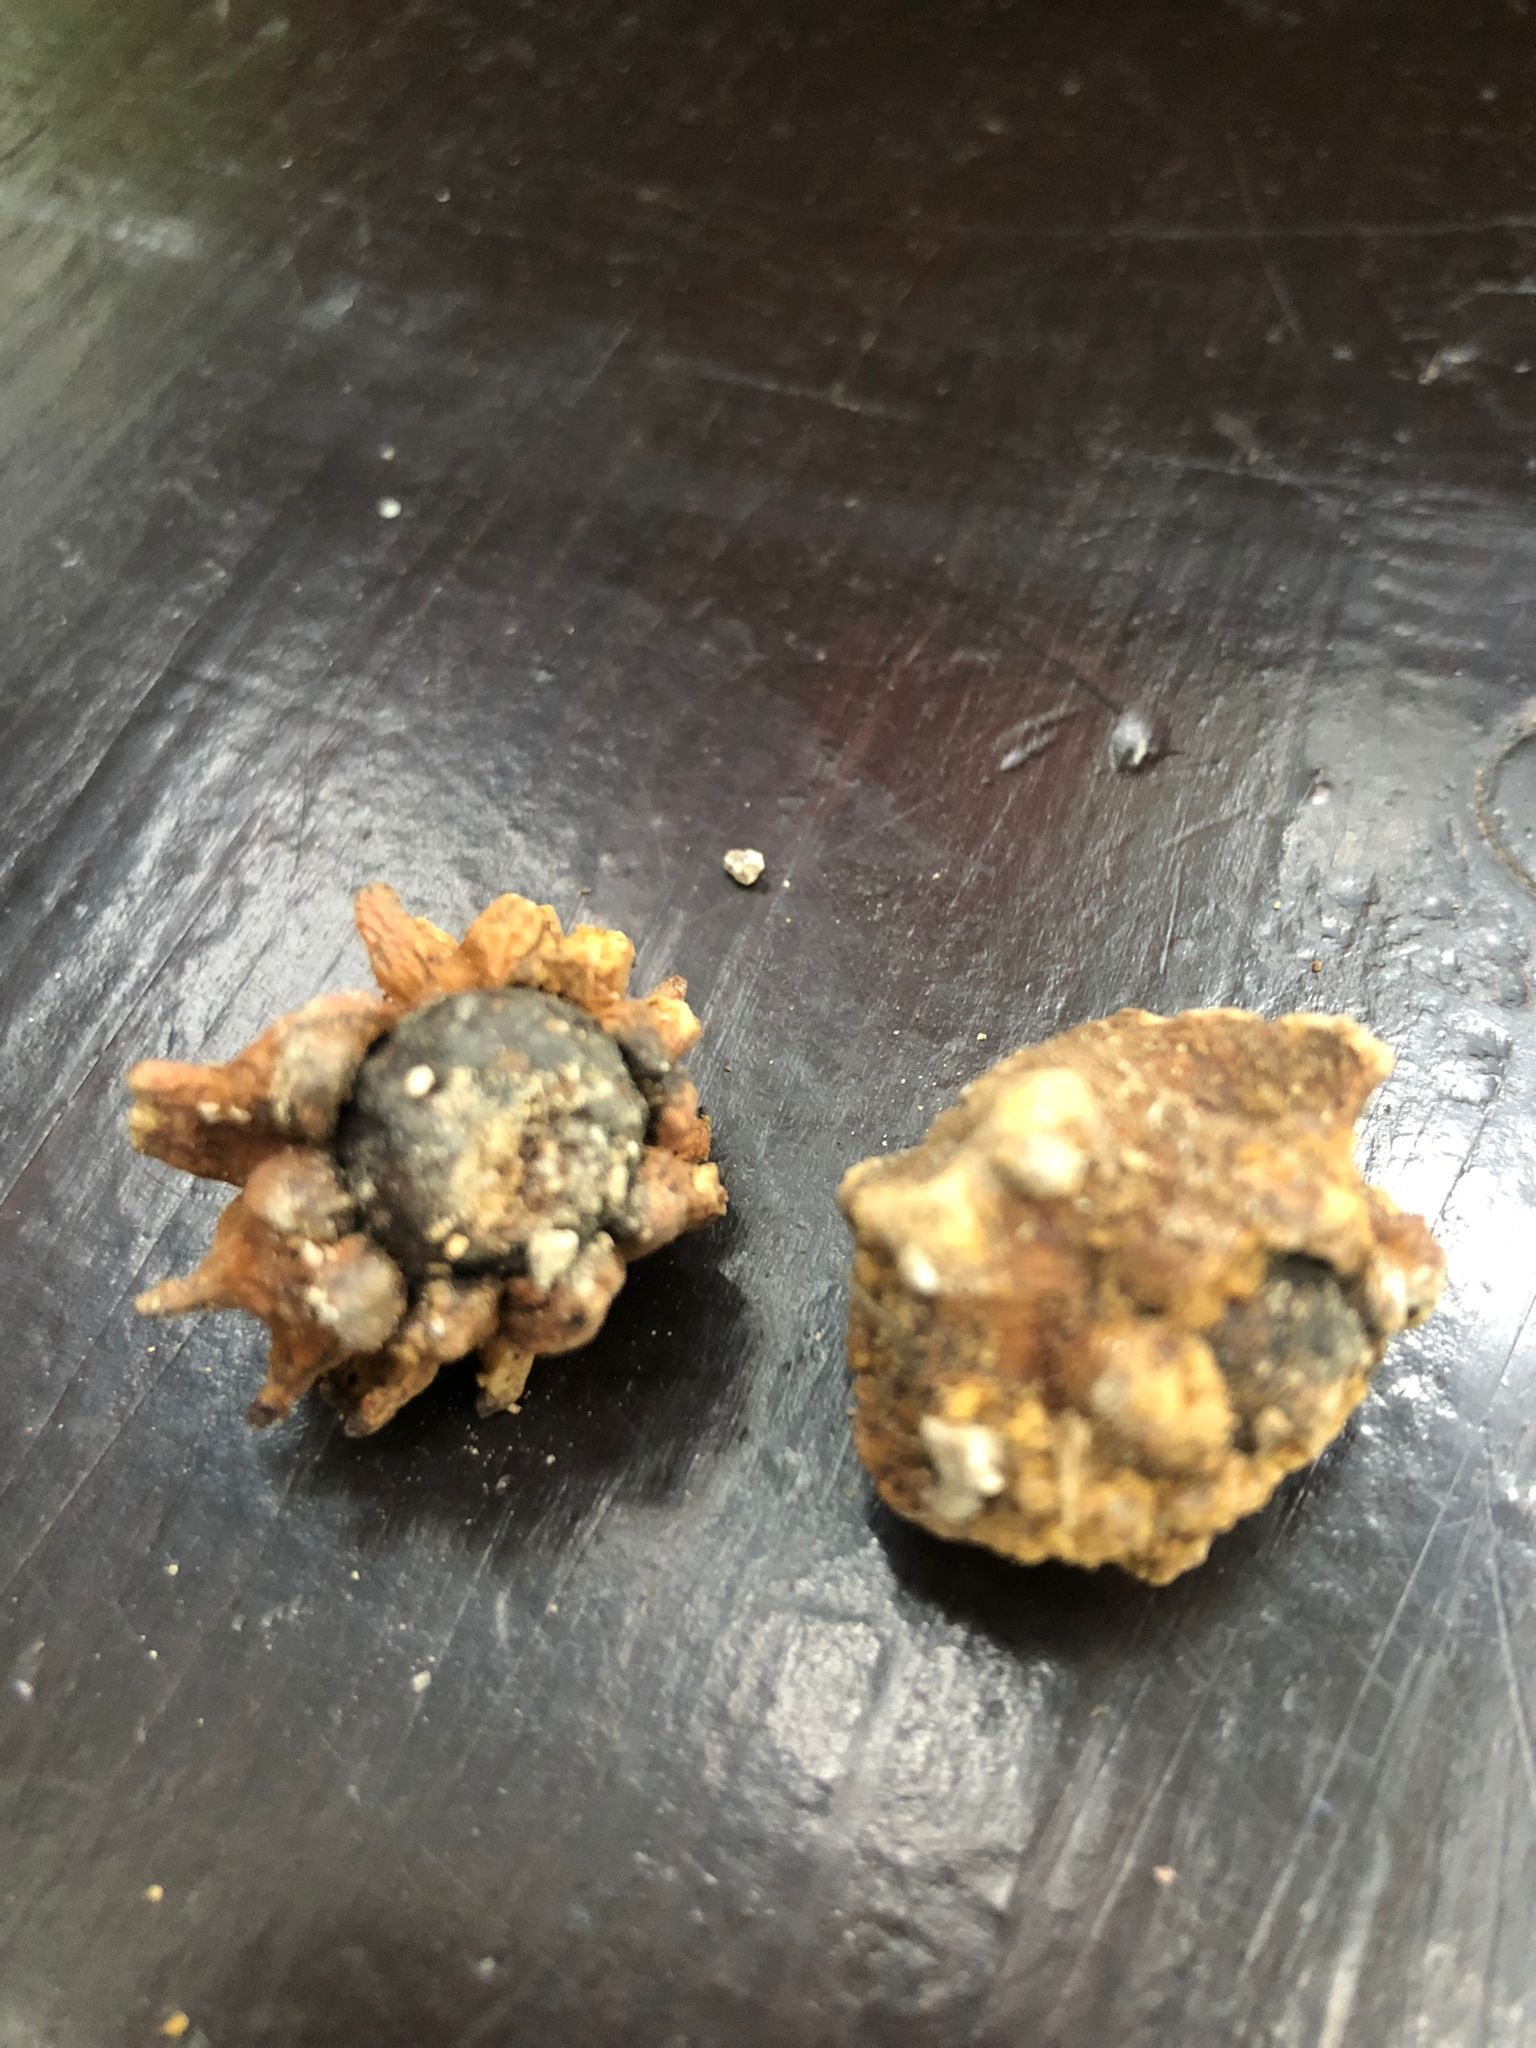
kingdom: Animalia
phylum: Arthropoda
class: Insecta
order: Hymenoptera
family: Cynipidae
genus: Andricus
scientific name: Andricus quercuscalicis
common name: Knopper gall
